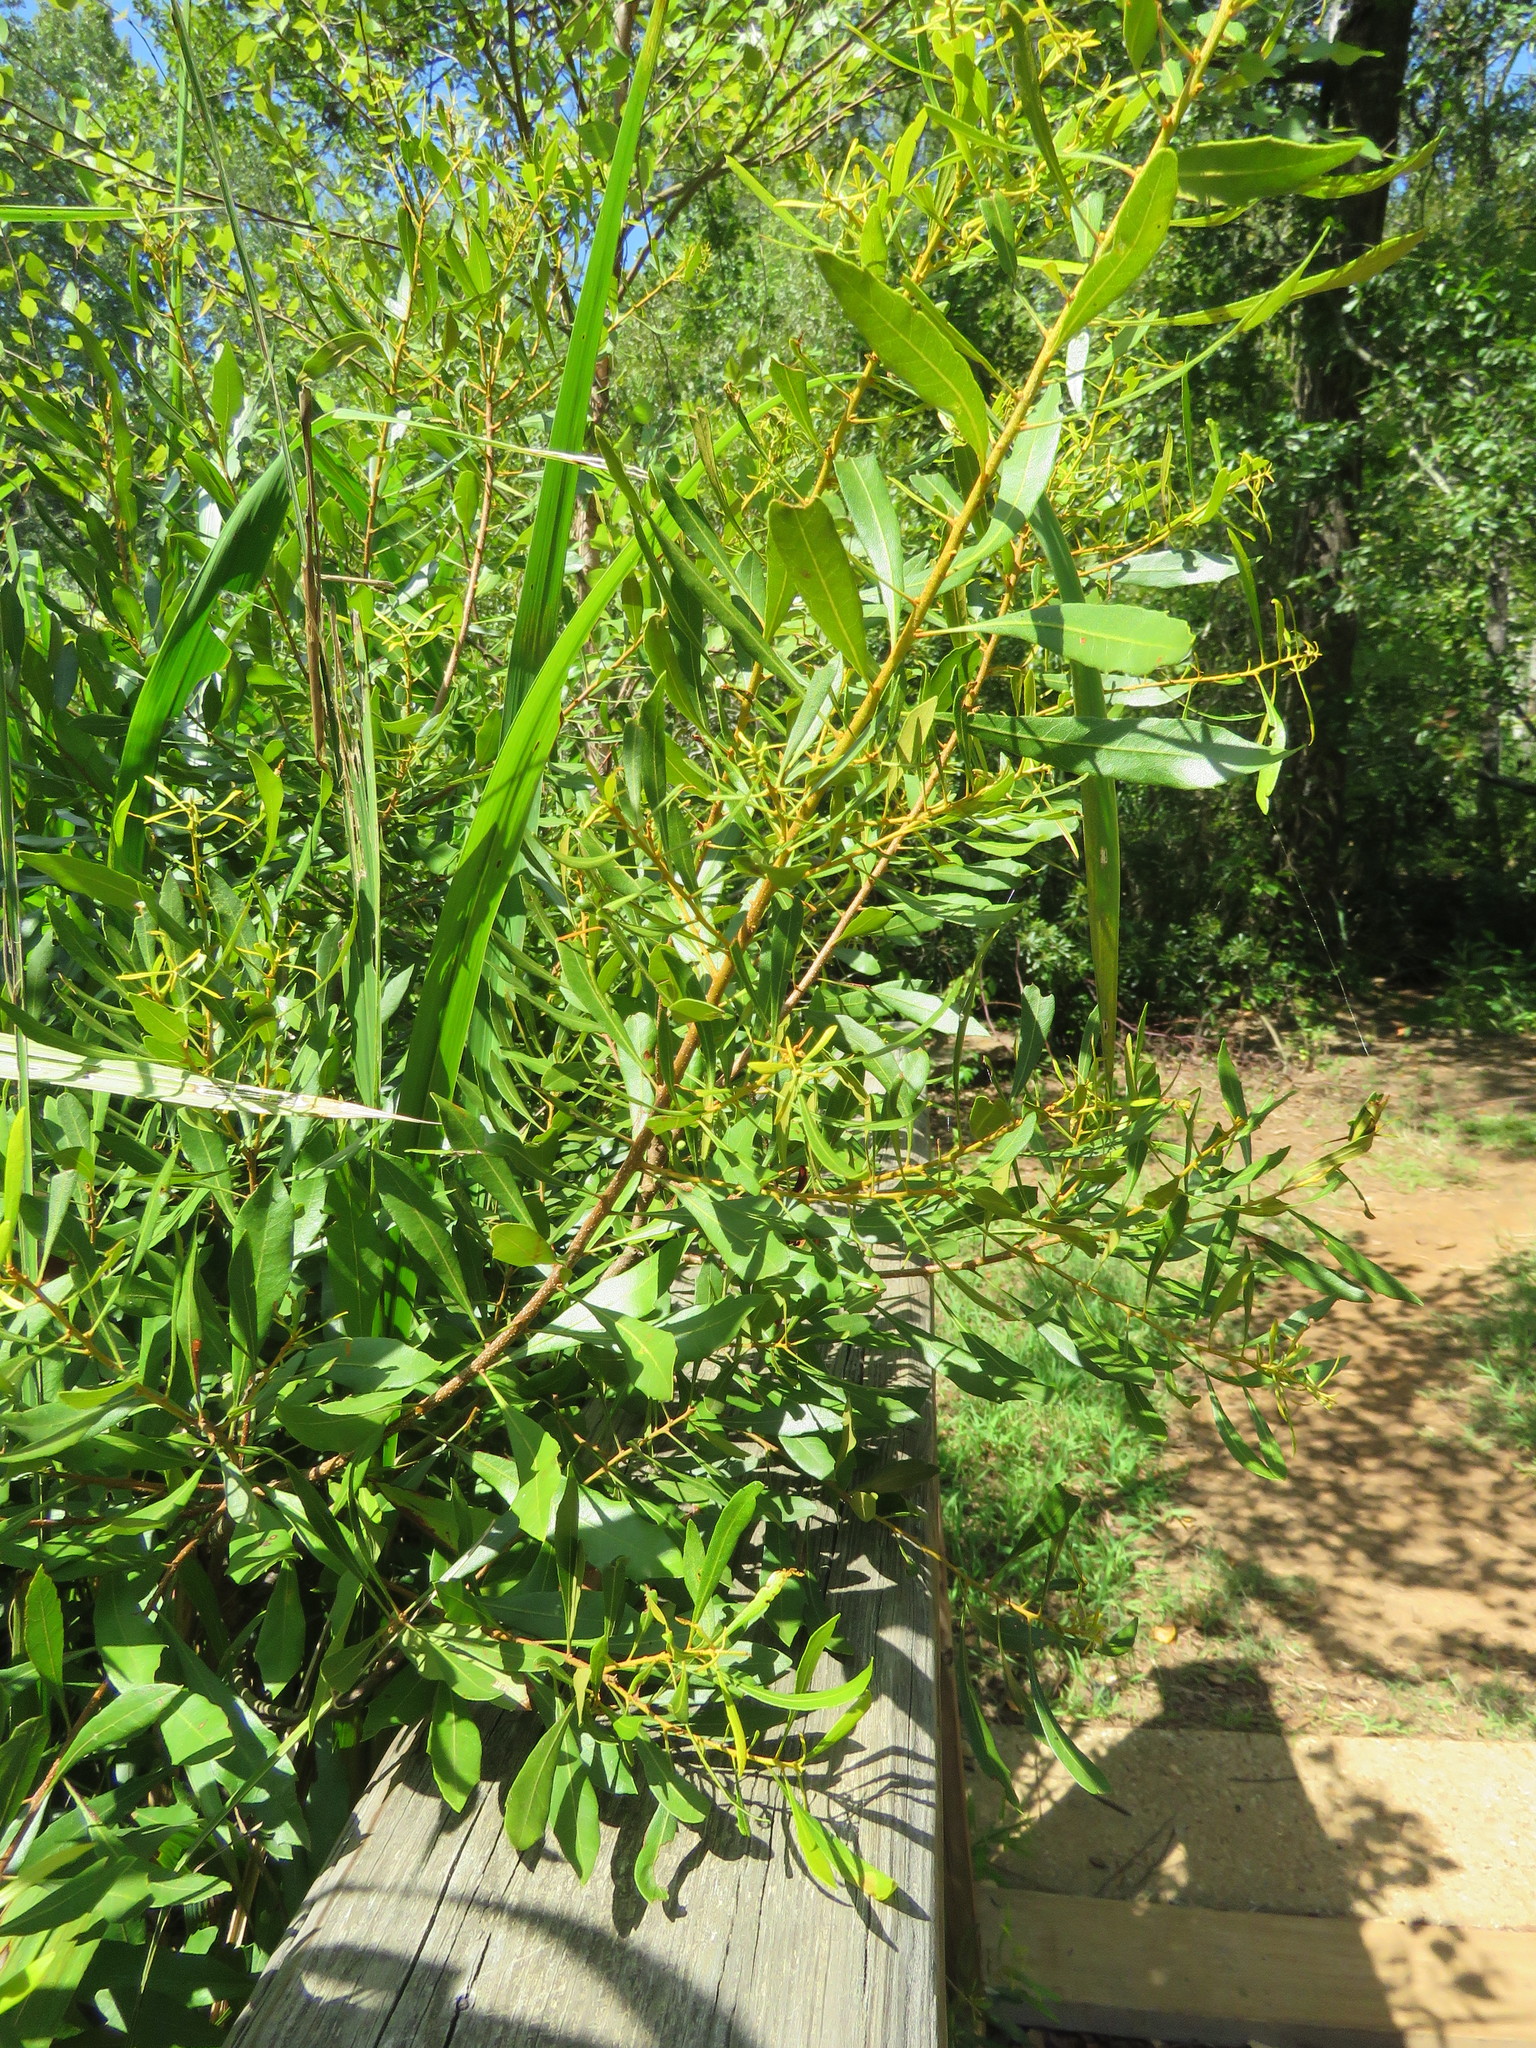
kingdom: Plantae
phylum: Tracheophyta
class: Magnoliopsida
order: Fagales
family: Myricaceae
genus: Morella
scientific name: Morella cerifera
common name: Wax myrtle
